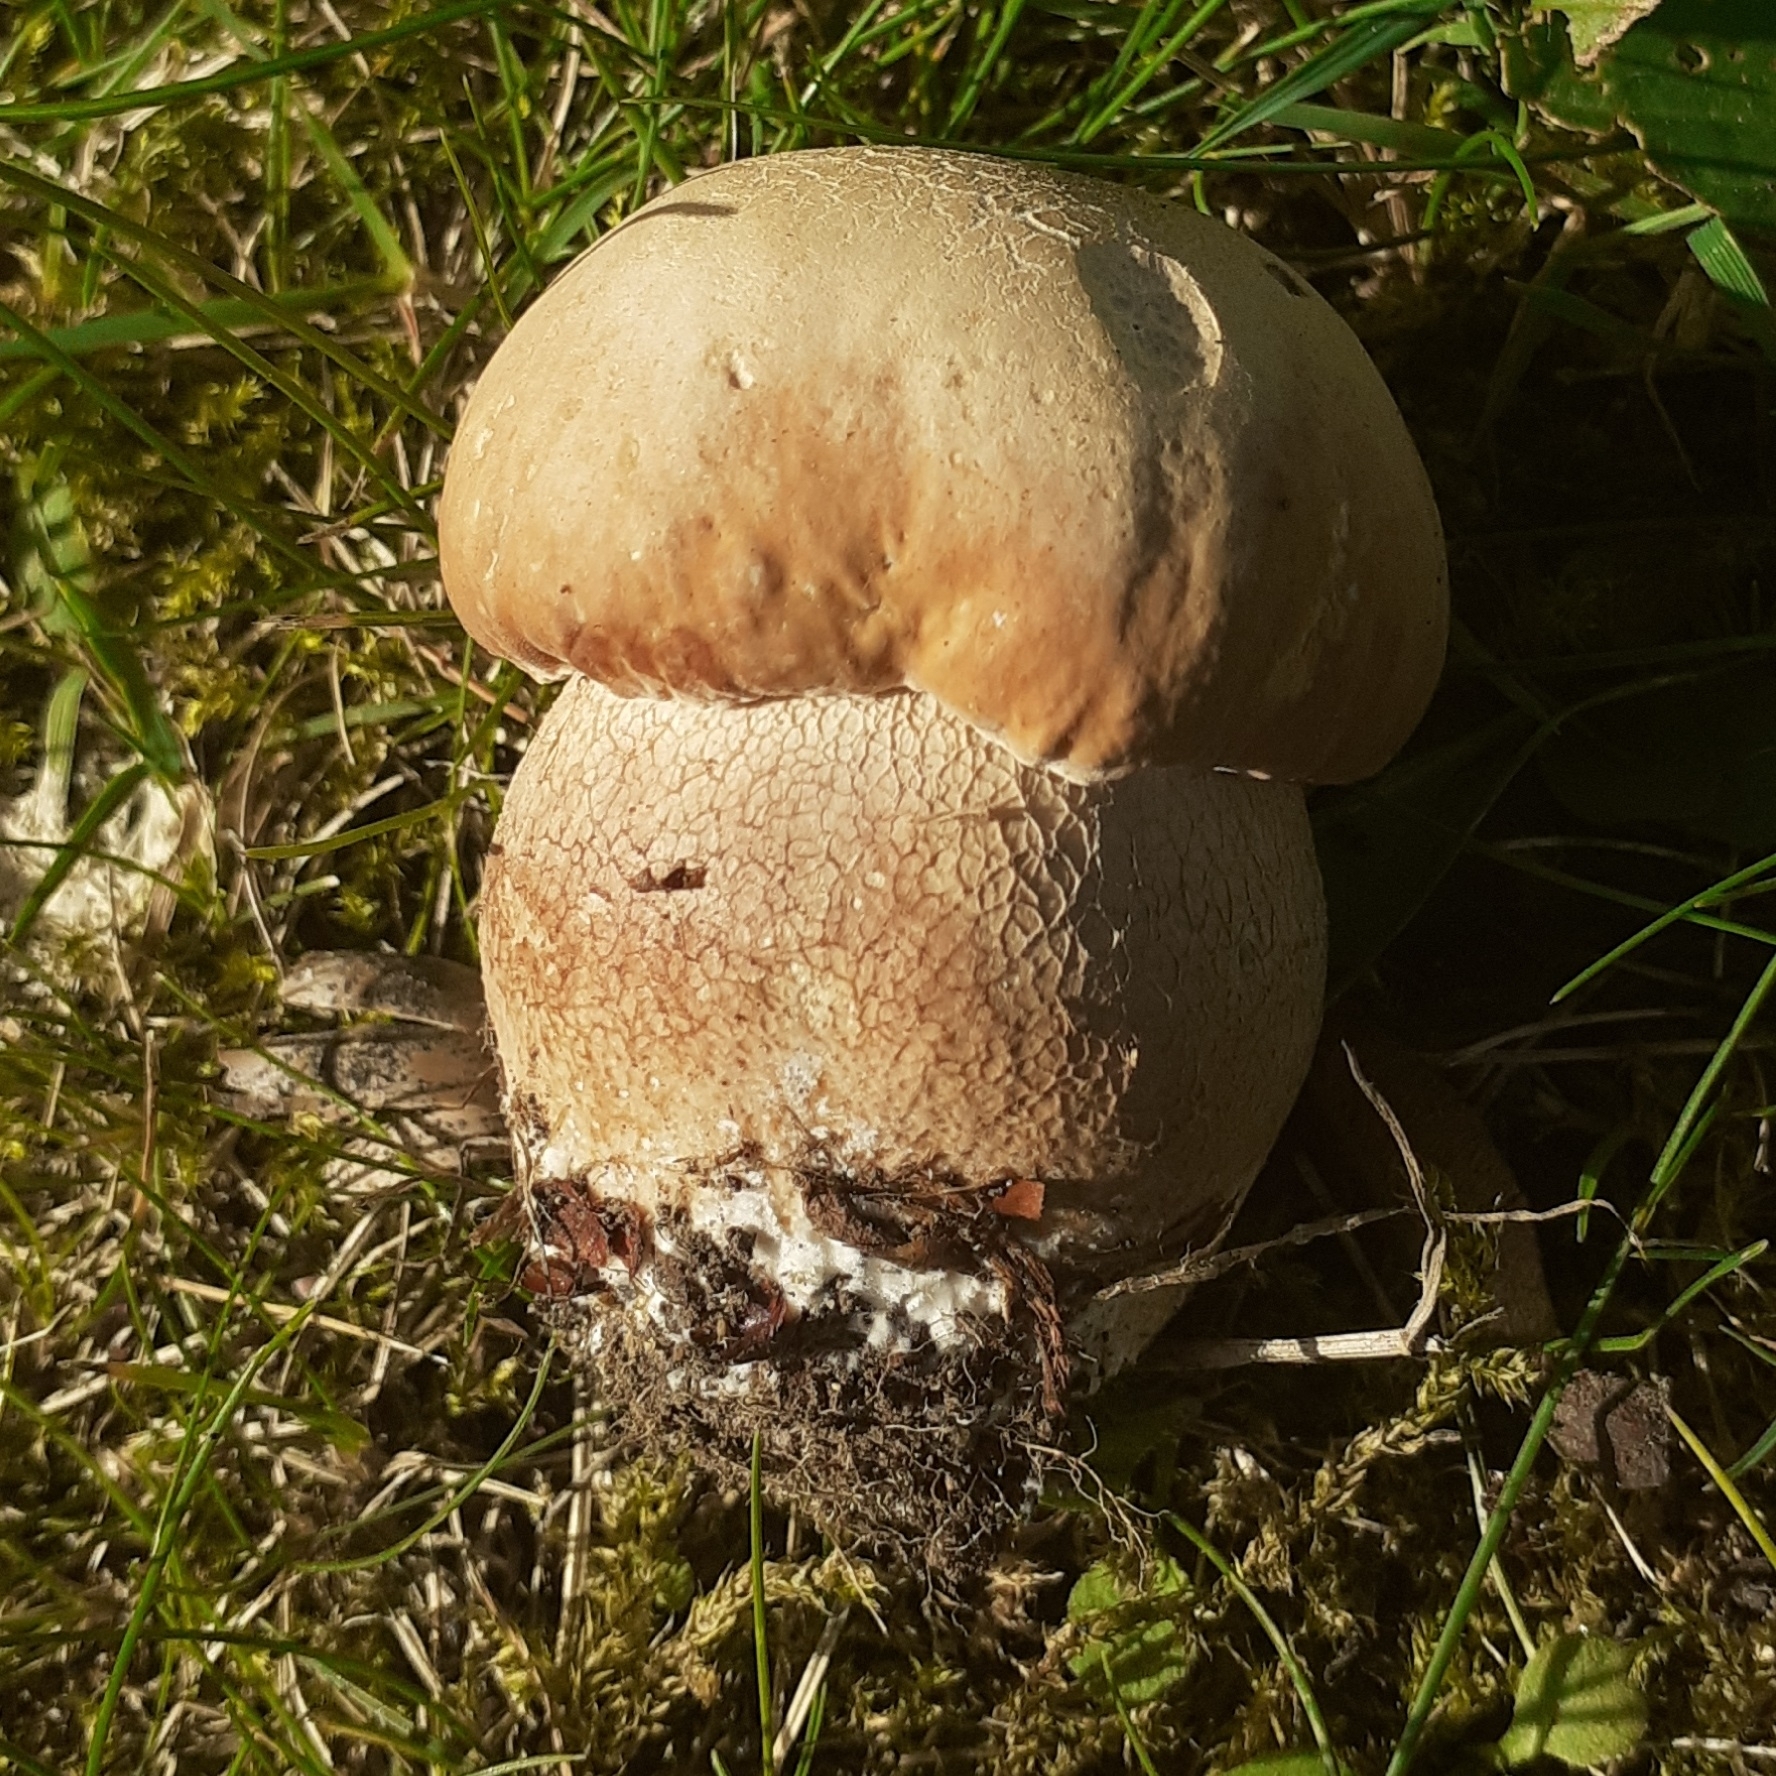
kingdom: Fungi
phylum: Basidiomycota
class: Agaricomycetes
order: Boletales
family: Boletaceae
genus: Boletus
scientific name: Boletus reticulatus
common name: Summer bolete
